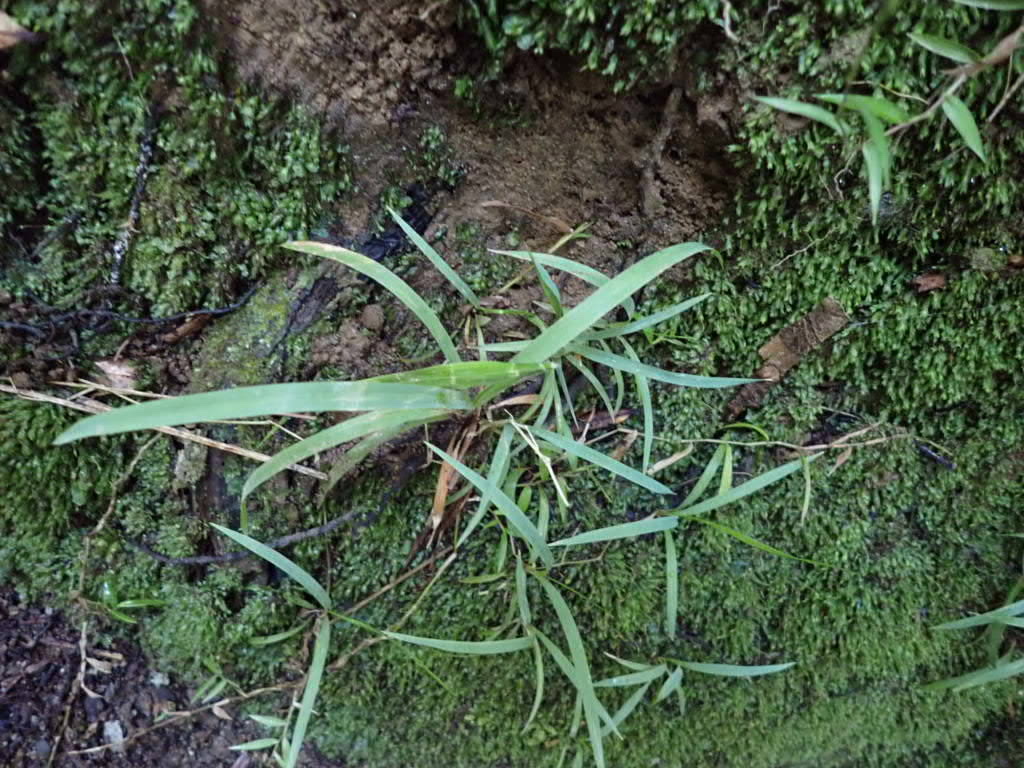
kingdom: Plantae
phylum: Tracheophyta
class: Liliopsida
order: Poales
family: Poaceae
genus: Ehrharta
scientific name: Ehrharta diplax
